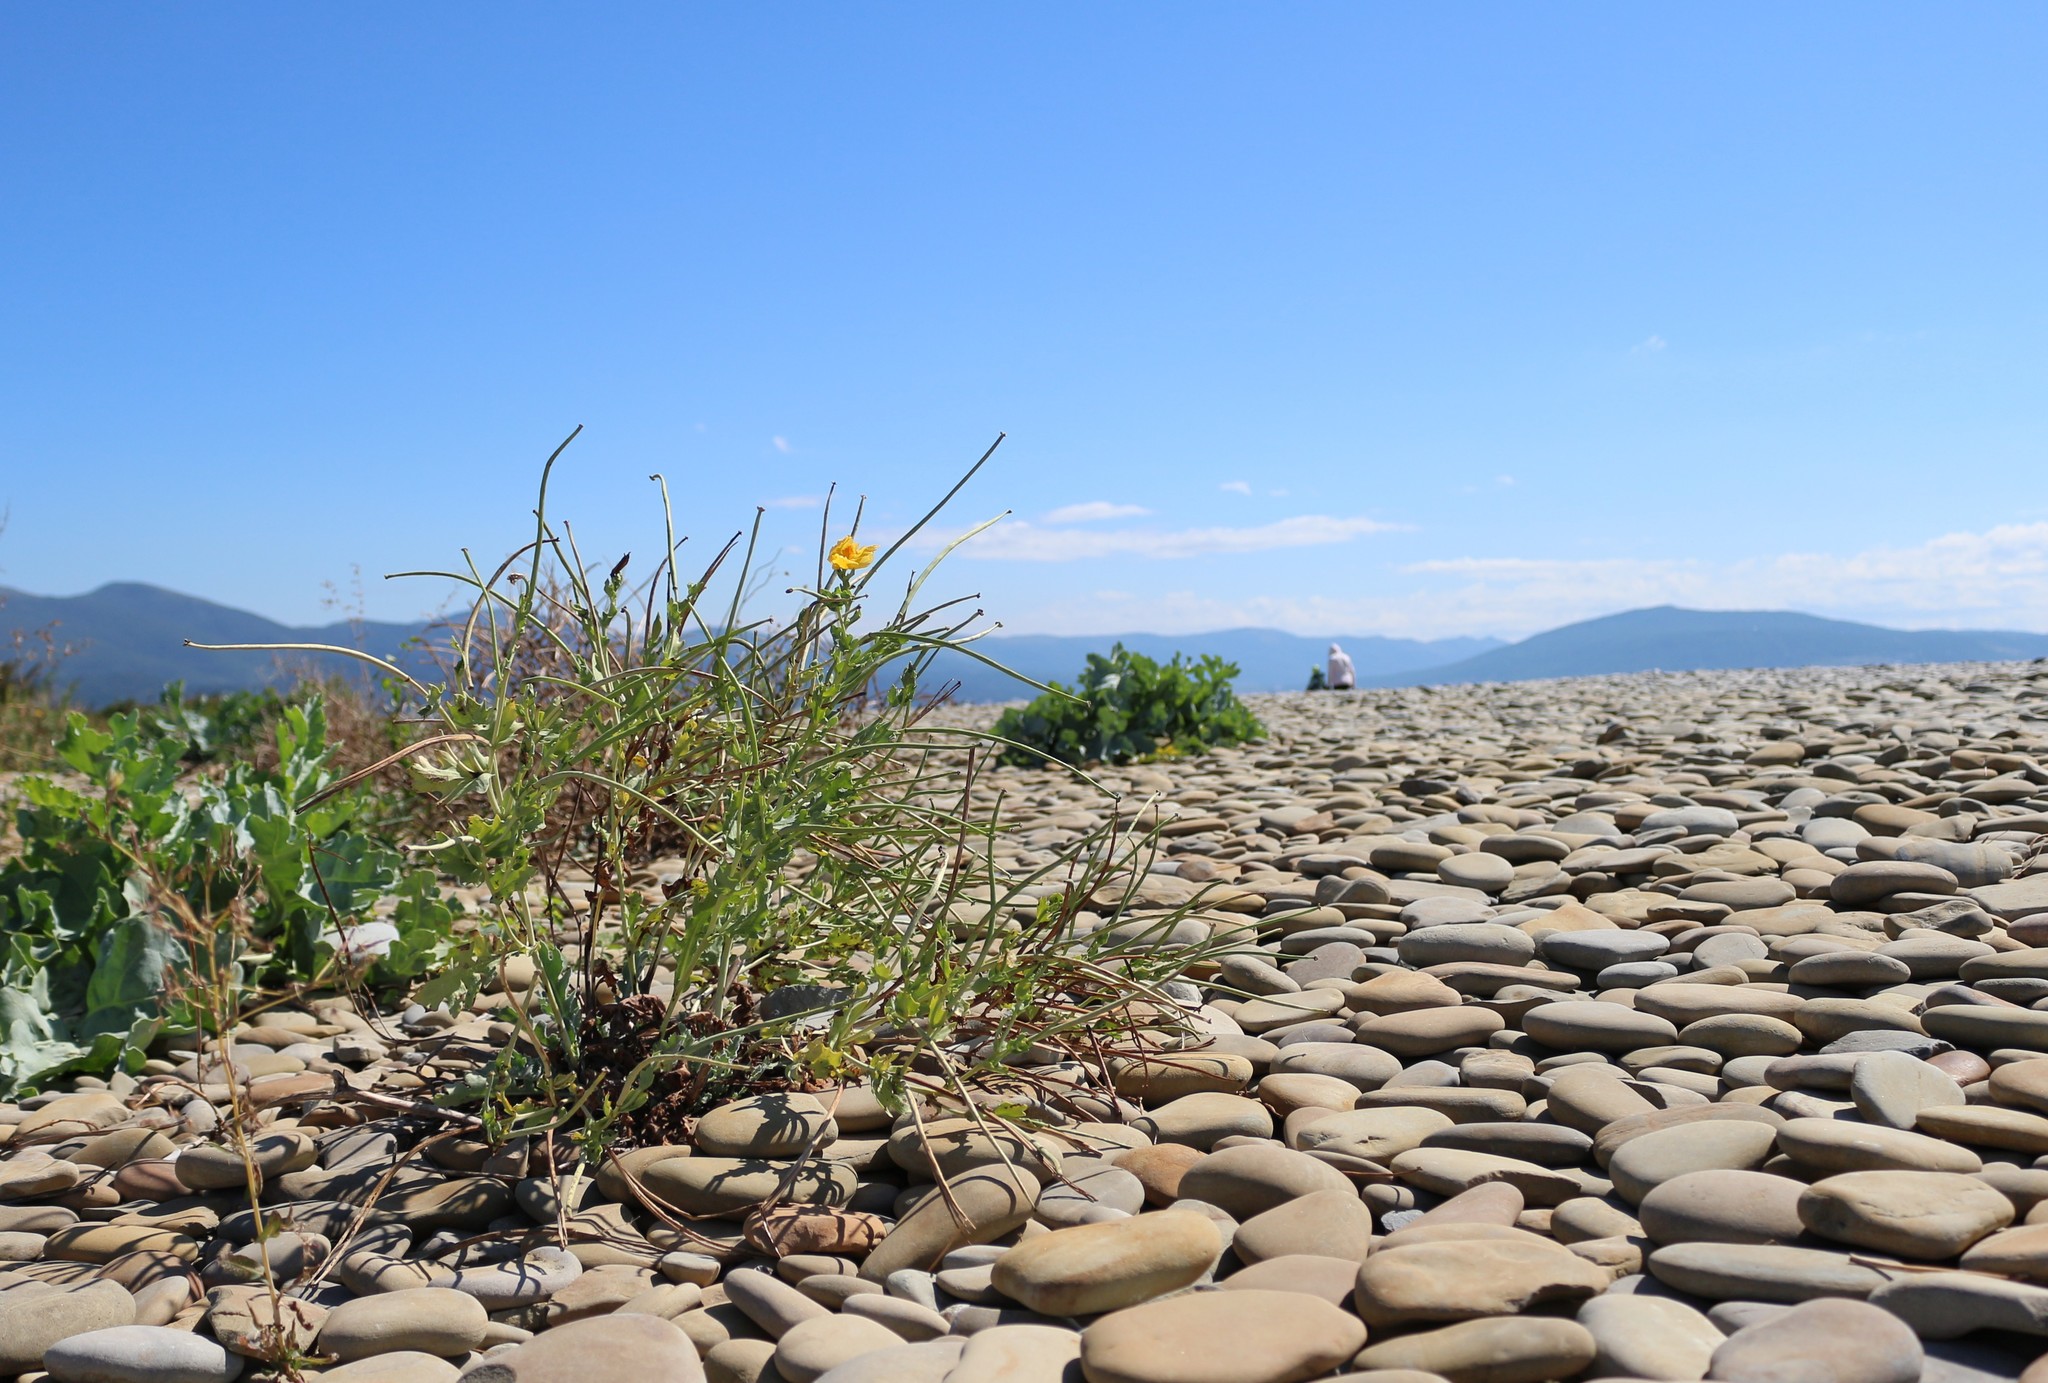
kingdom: Plantae
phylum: Tracheophyta
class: Magnoliopsida
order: Ranunculales
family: Papaveraceae
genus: Glaucium
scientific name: Glaucium flavum
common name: Yellow horned-poppy
